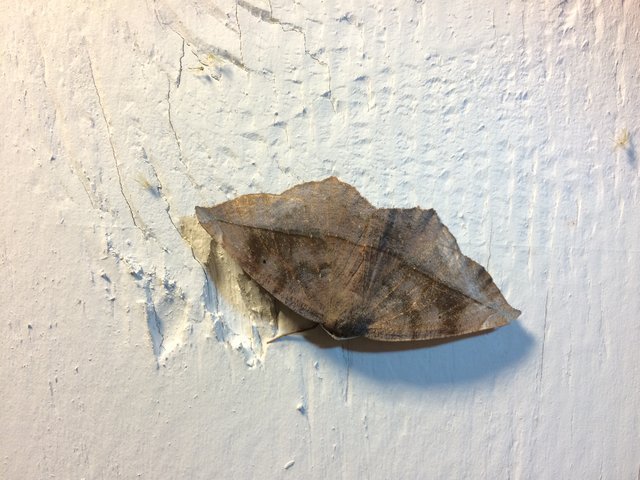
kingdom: Animalia
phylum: Arthropoda
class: Insecta
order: Lepidoptera
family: Geometridae
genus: Eutrapela
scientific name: Eutrapela clemataria
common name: Curved-toothed geometer
